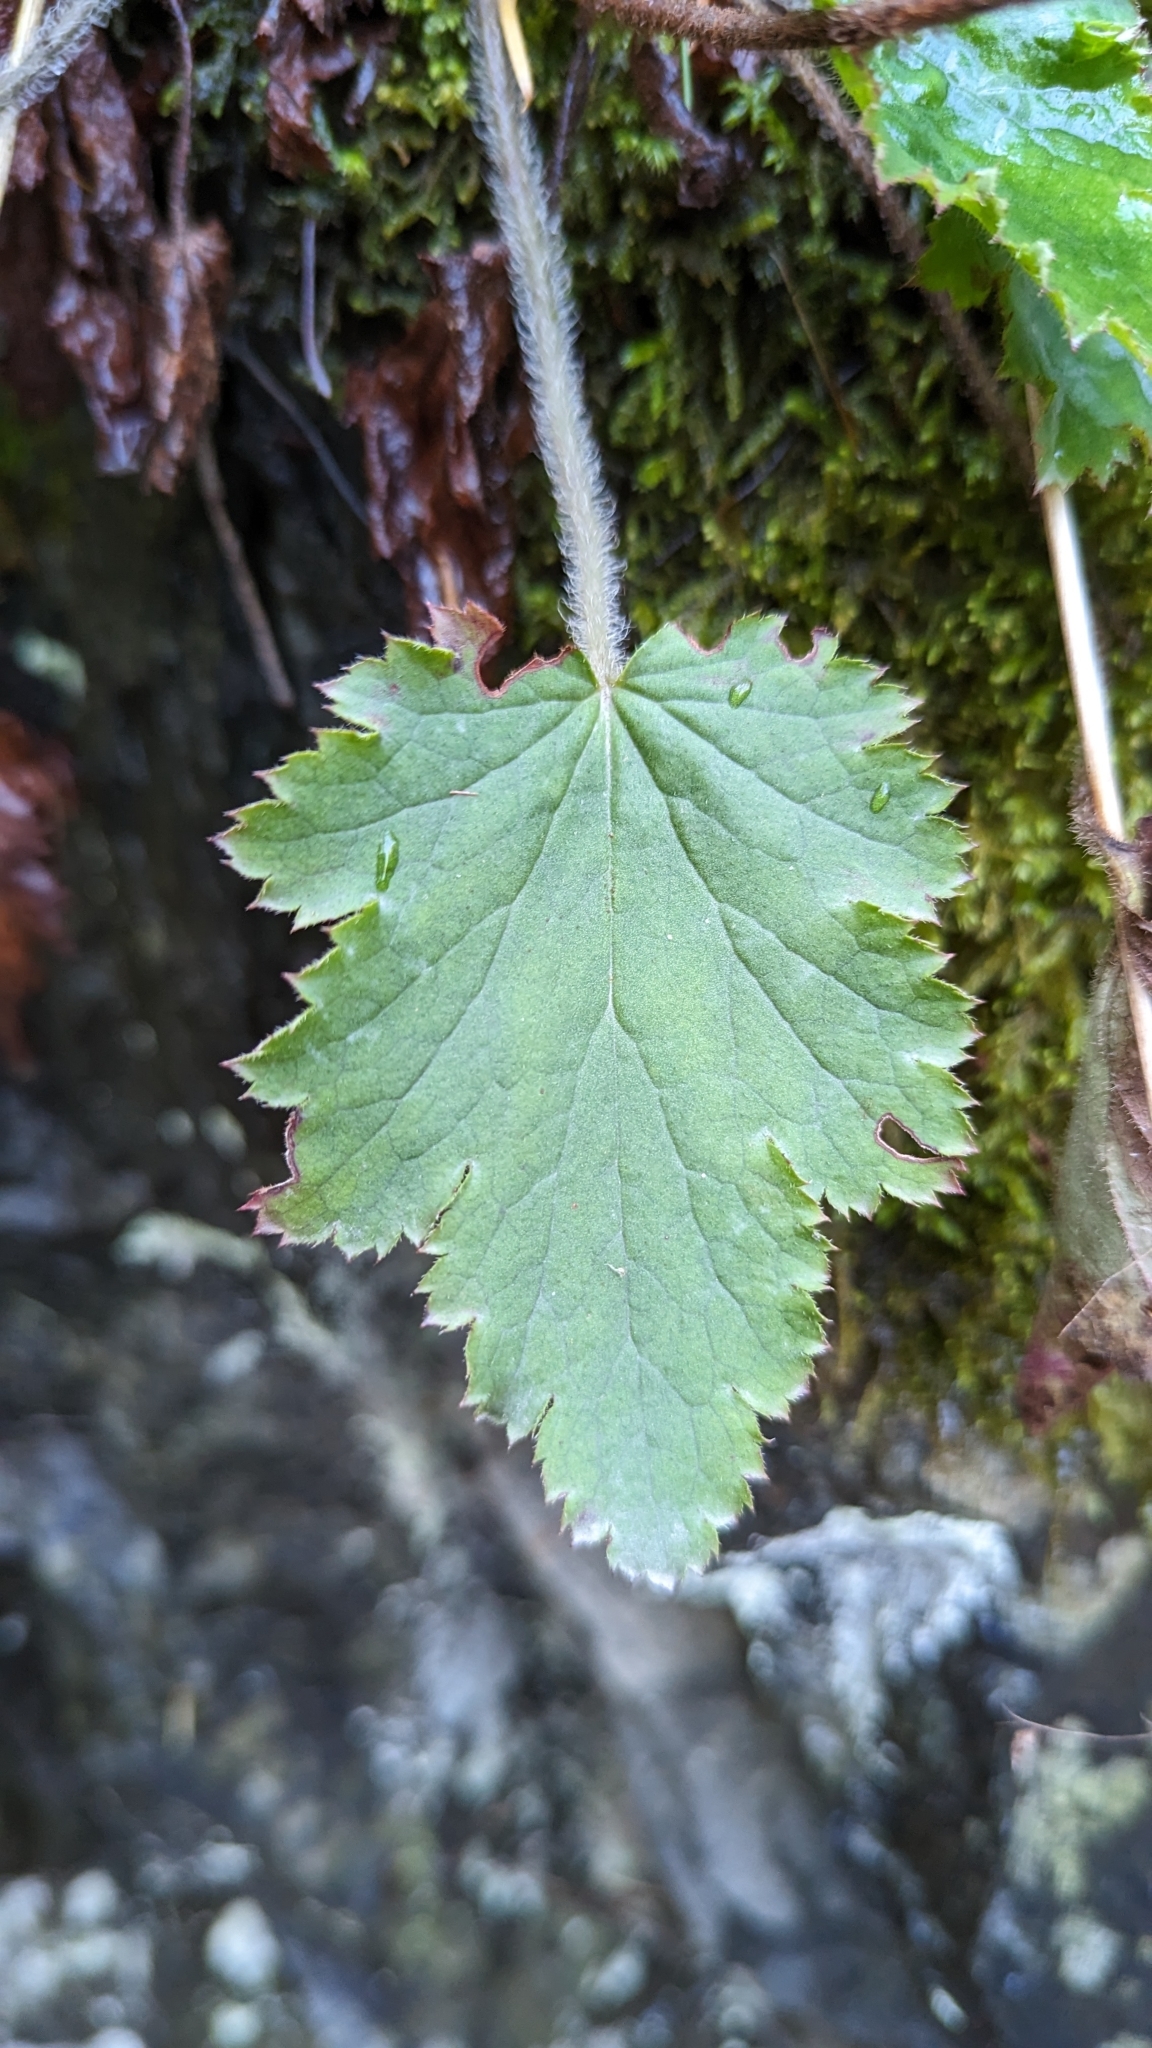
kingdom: Plantae
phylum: Tracheophyta
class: Magnoliopsida
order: Saxifragales
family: Saxifragaceae
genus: Heuchera
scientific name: Heuchera micrantha
